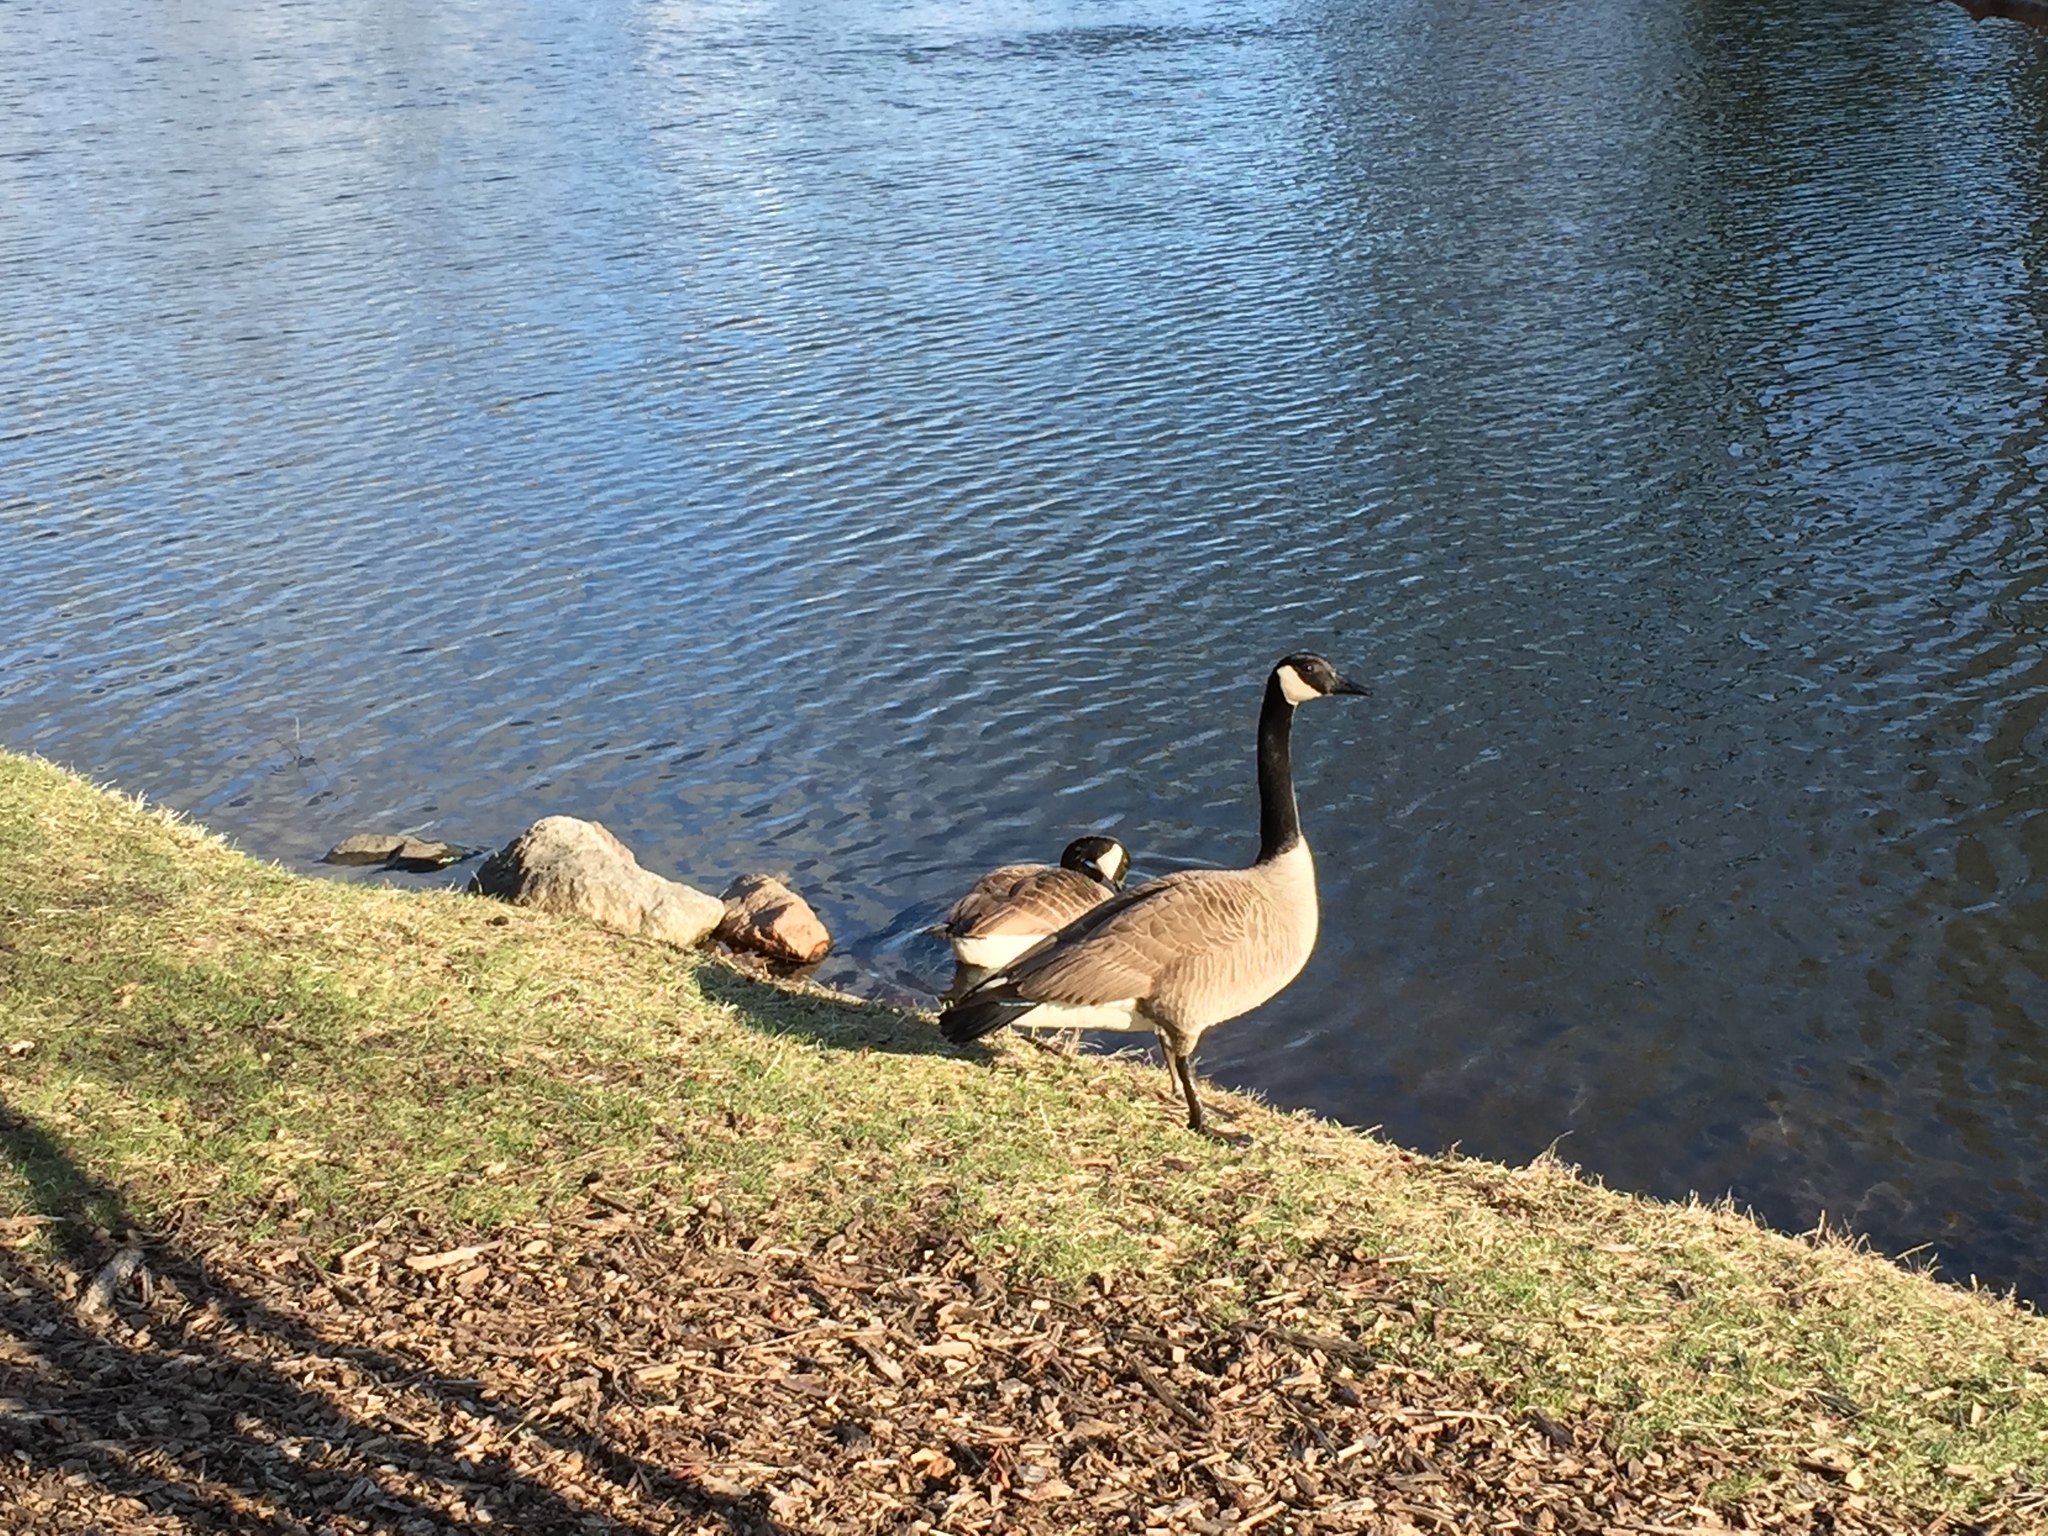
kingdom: Animalia
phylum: Chordata
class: Aves
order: Anseriformes
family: Anatidae
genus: Branta
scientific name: Branta canadensis
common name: Canada goose
